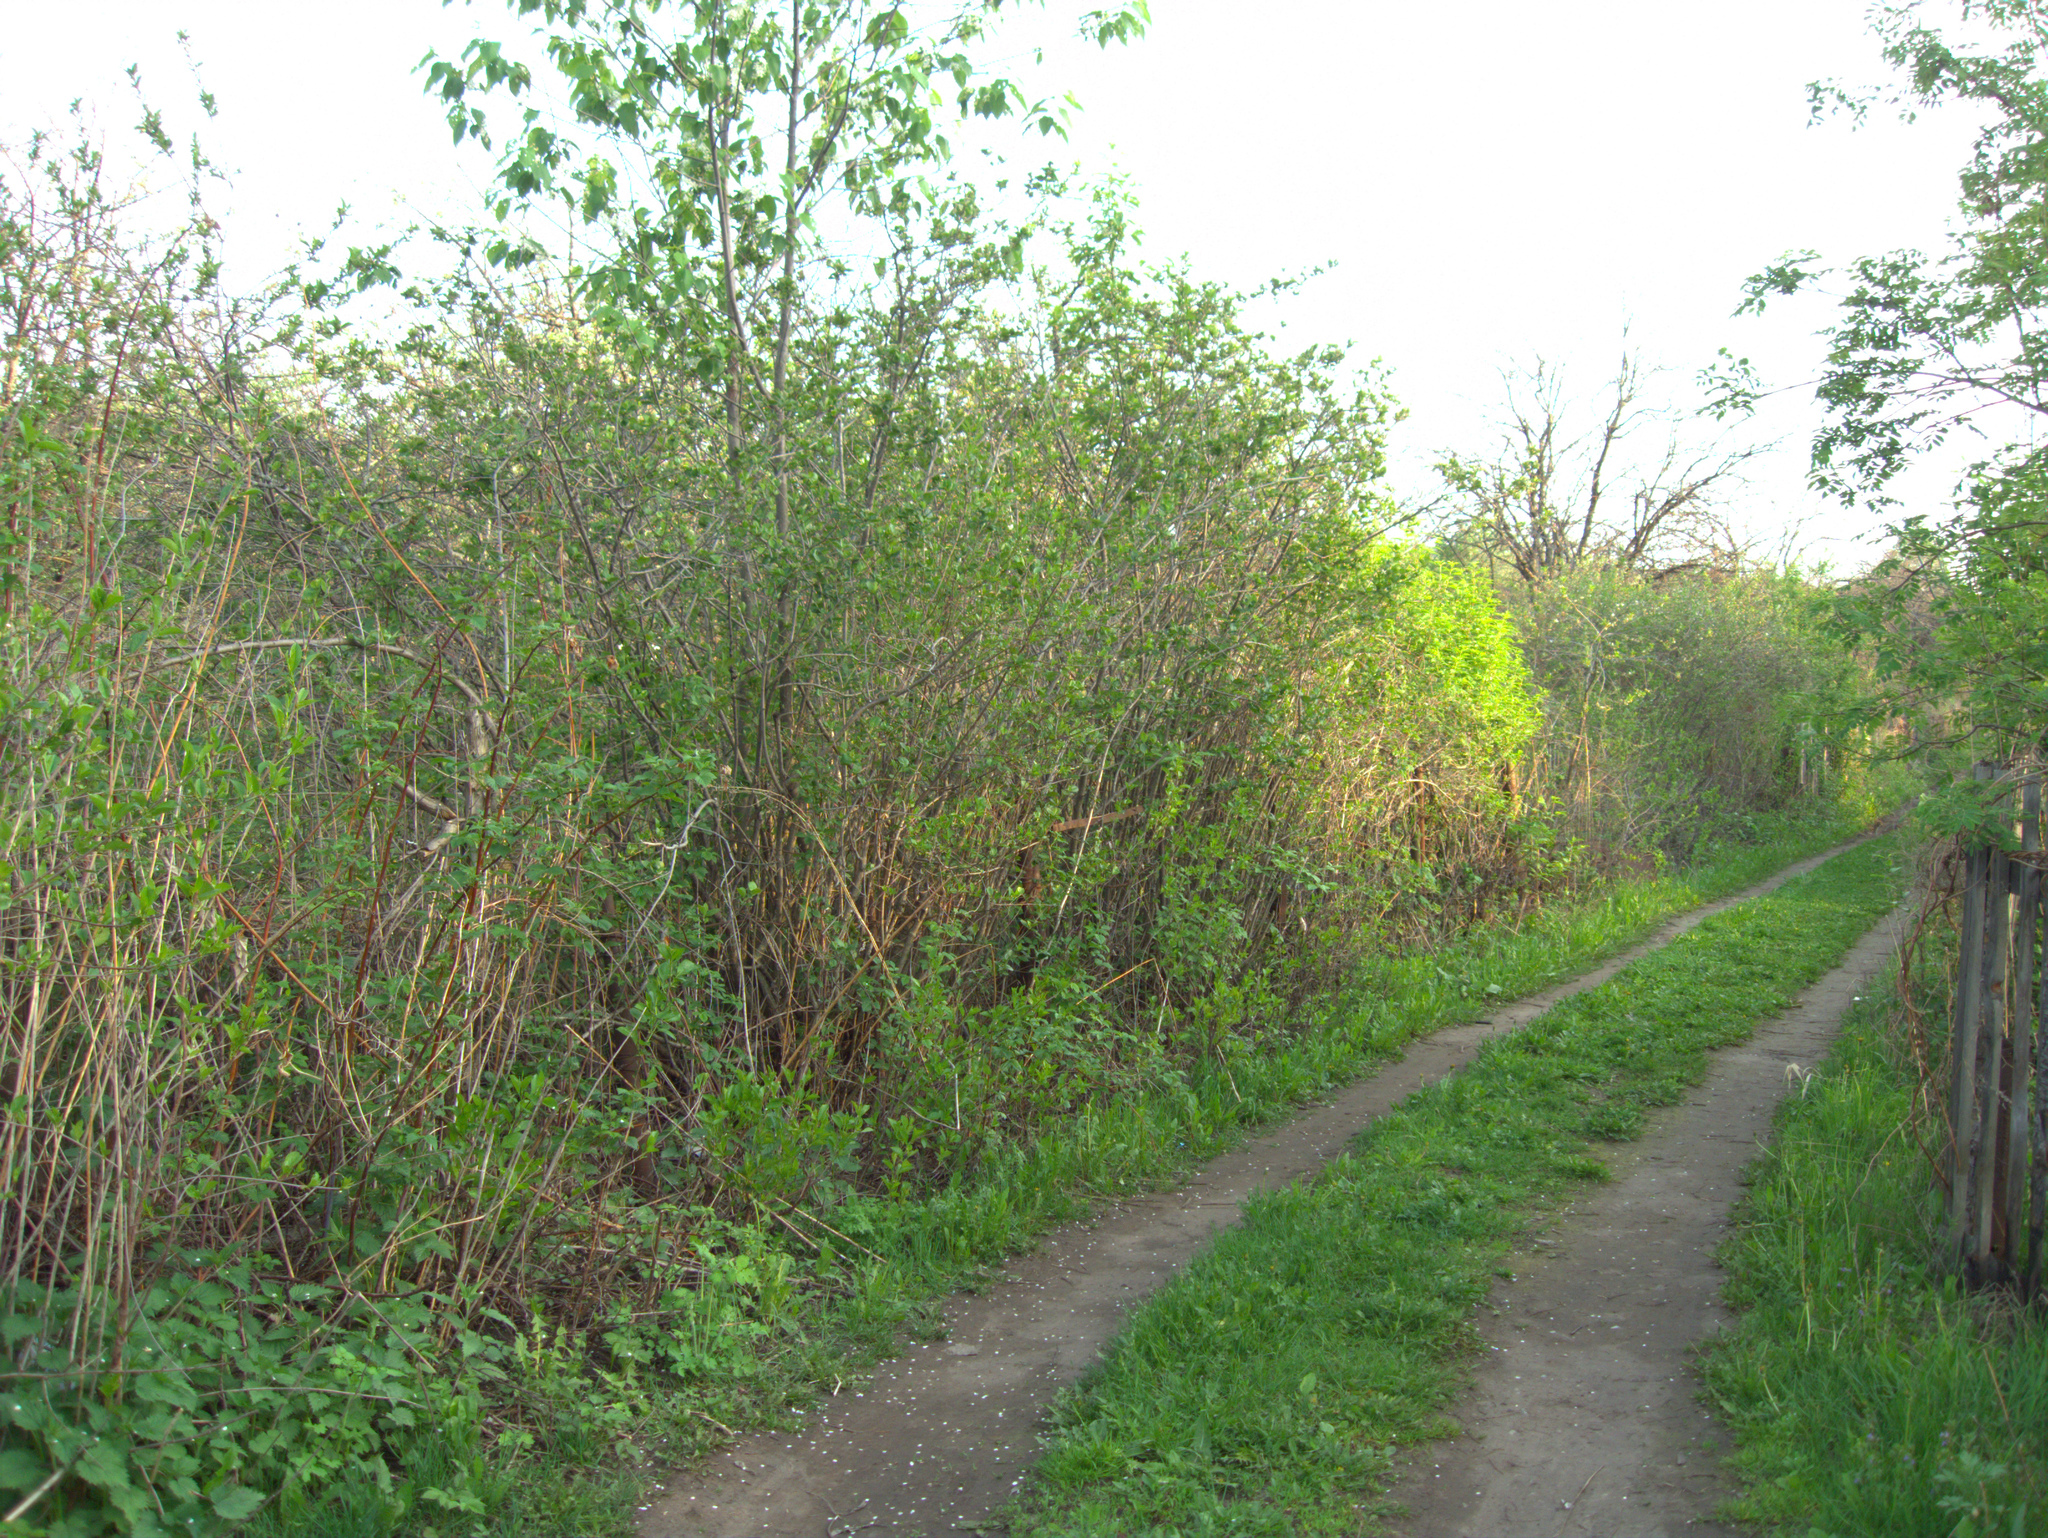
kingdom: Plantae
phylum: Tracheophyta
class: Magnoliopsida
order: Rosales
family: Urticaceae
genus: Urtica
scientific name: Urtica dioica
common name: Common nettle
